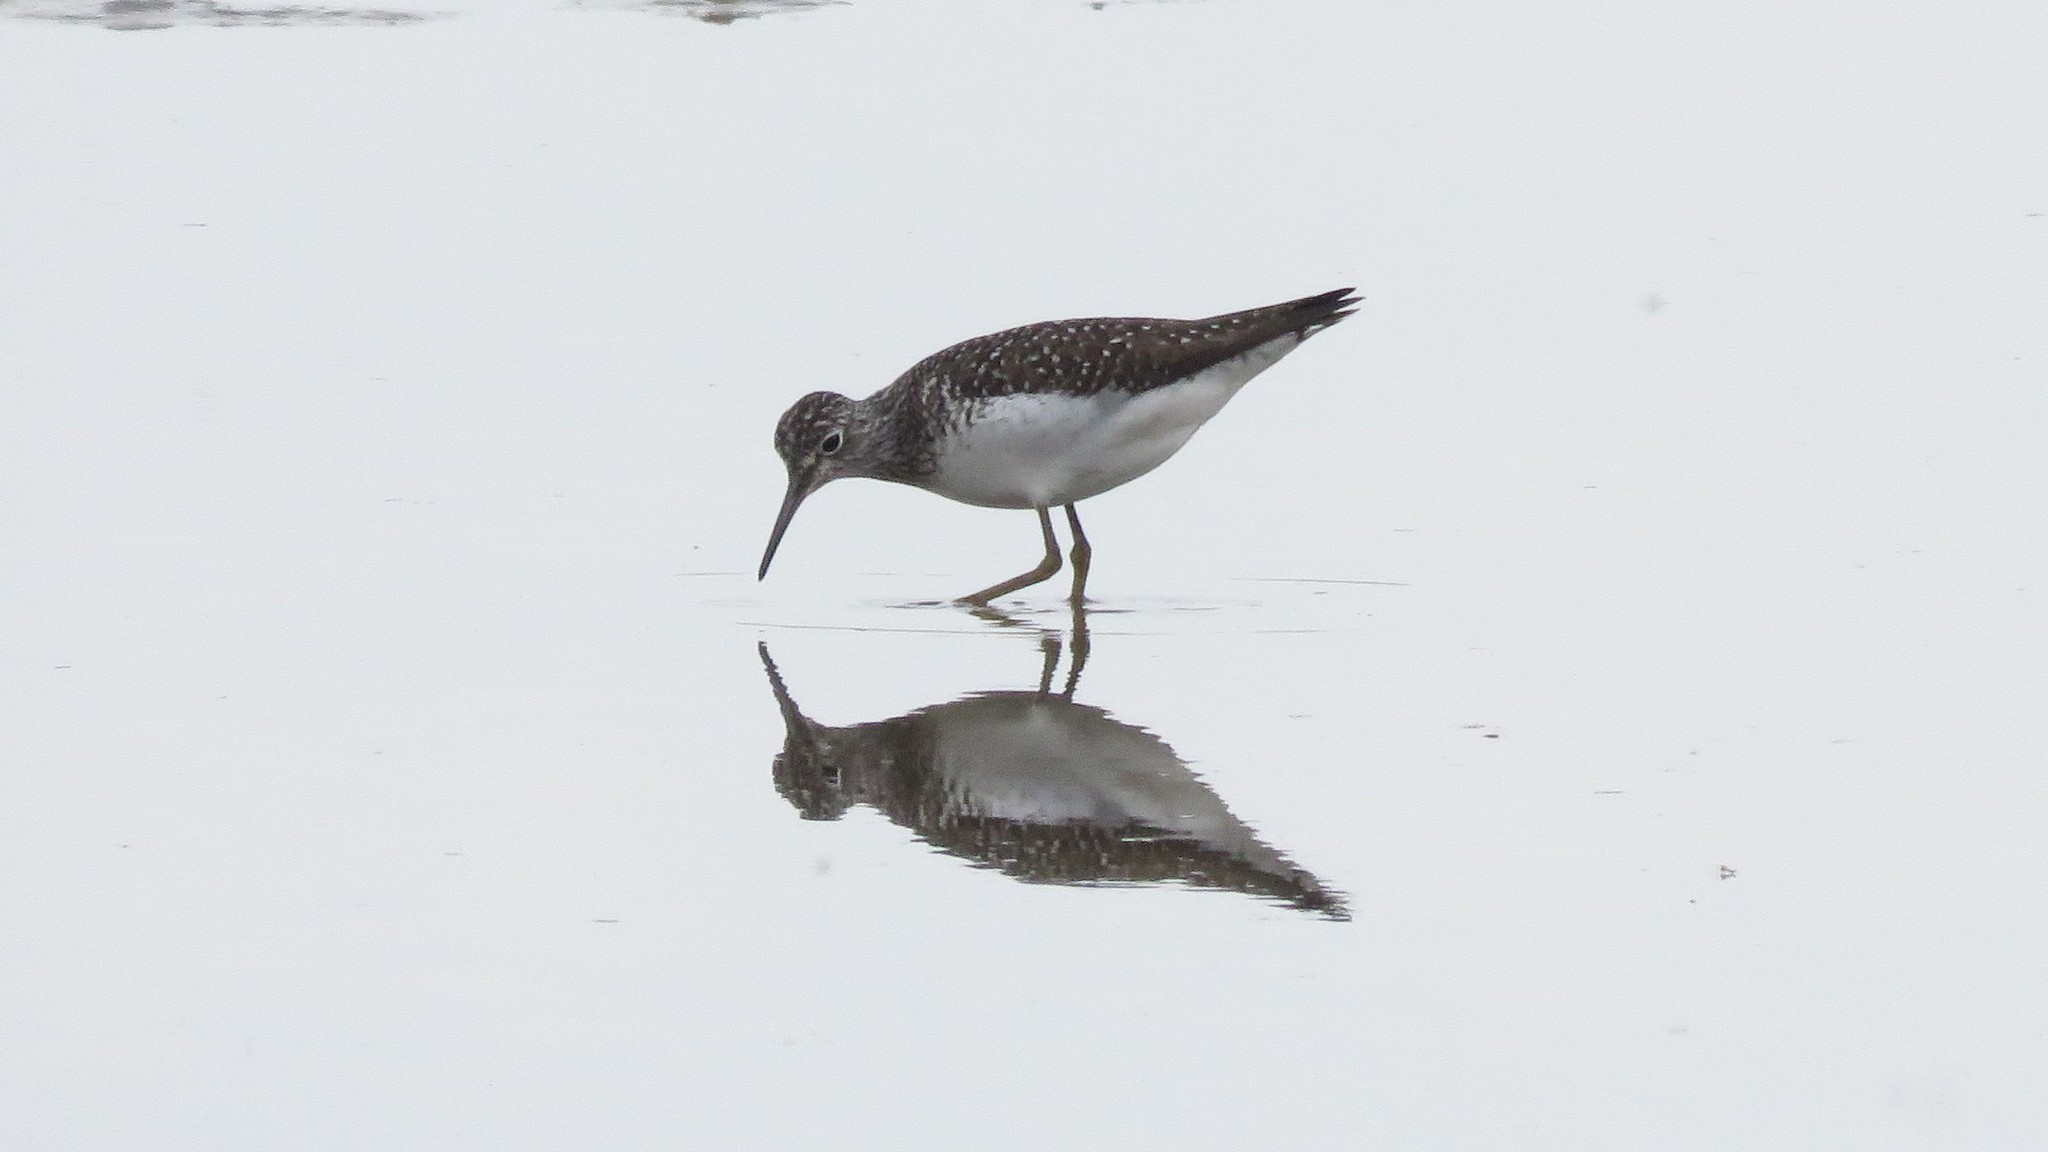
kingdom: Animalia
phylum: Chordata
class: Aves
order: Charadriiformes
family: Scolopacidae
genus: Tringa
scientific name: Tringa solitaria
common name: Solitary sandpiper
